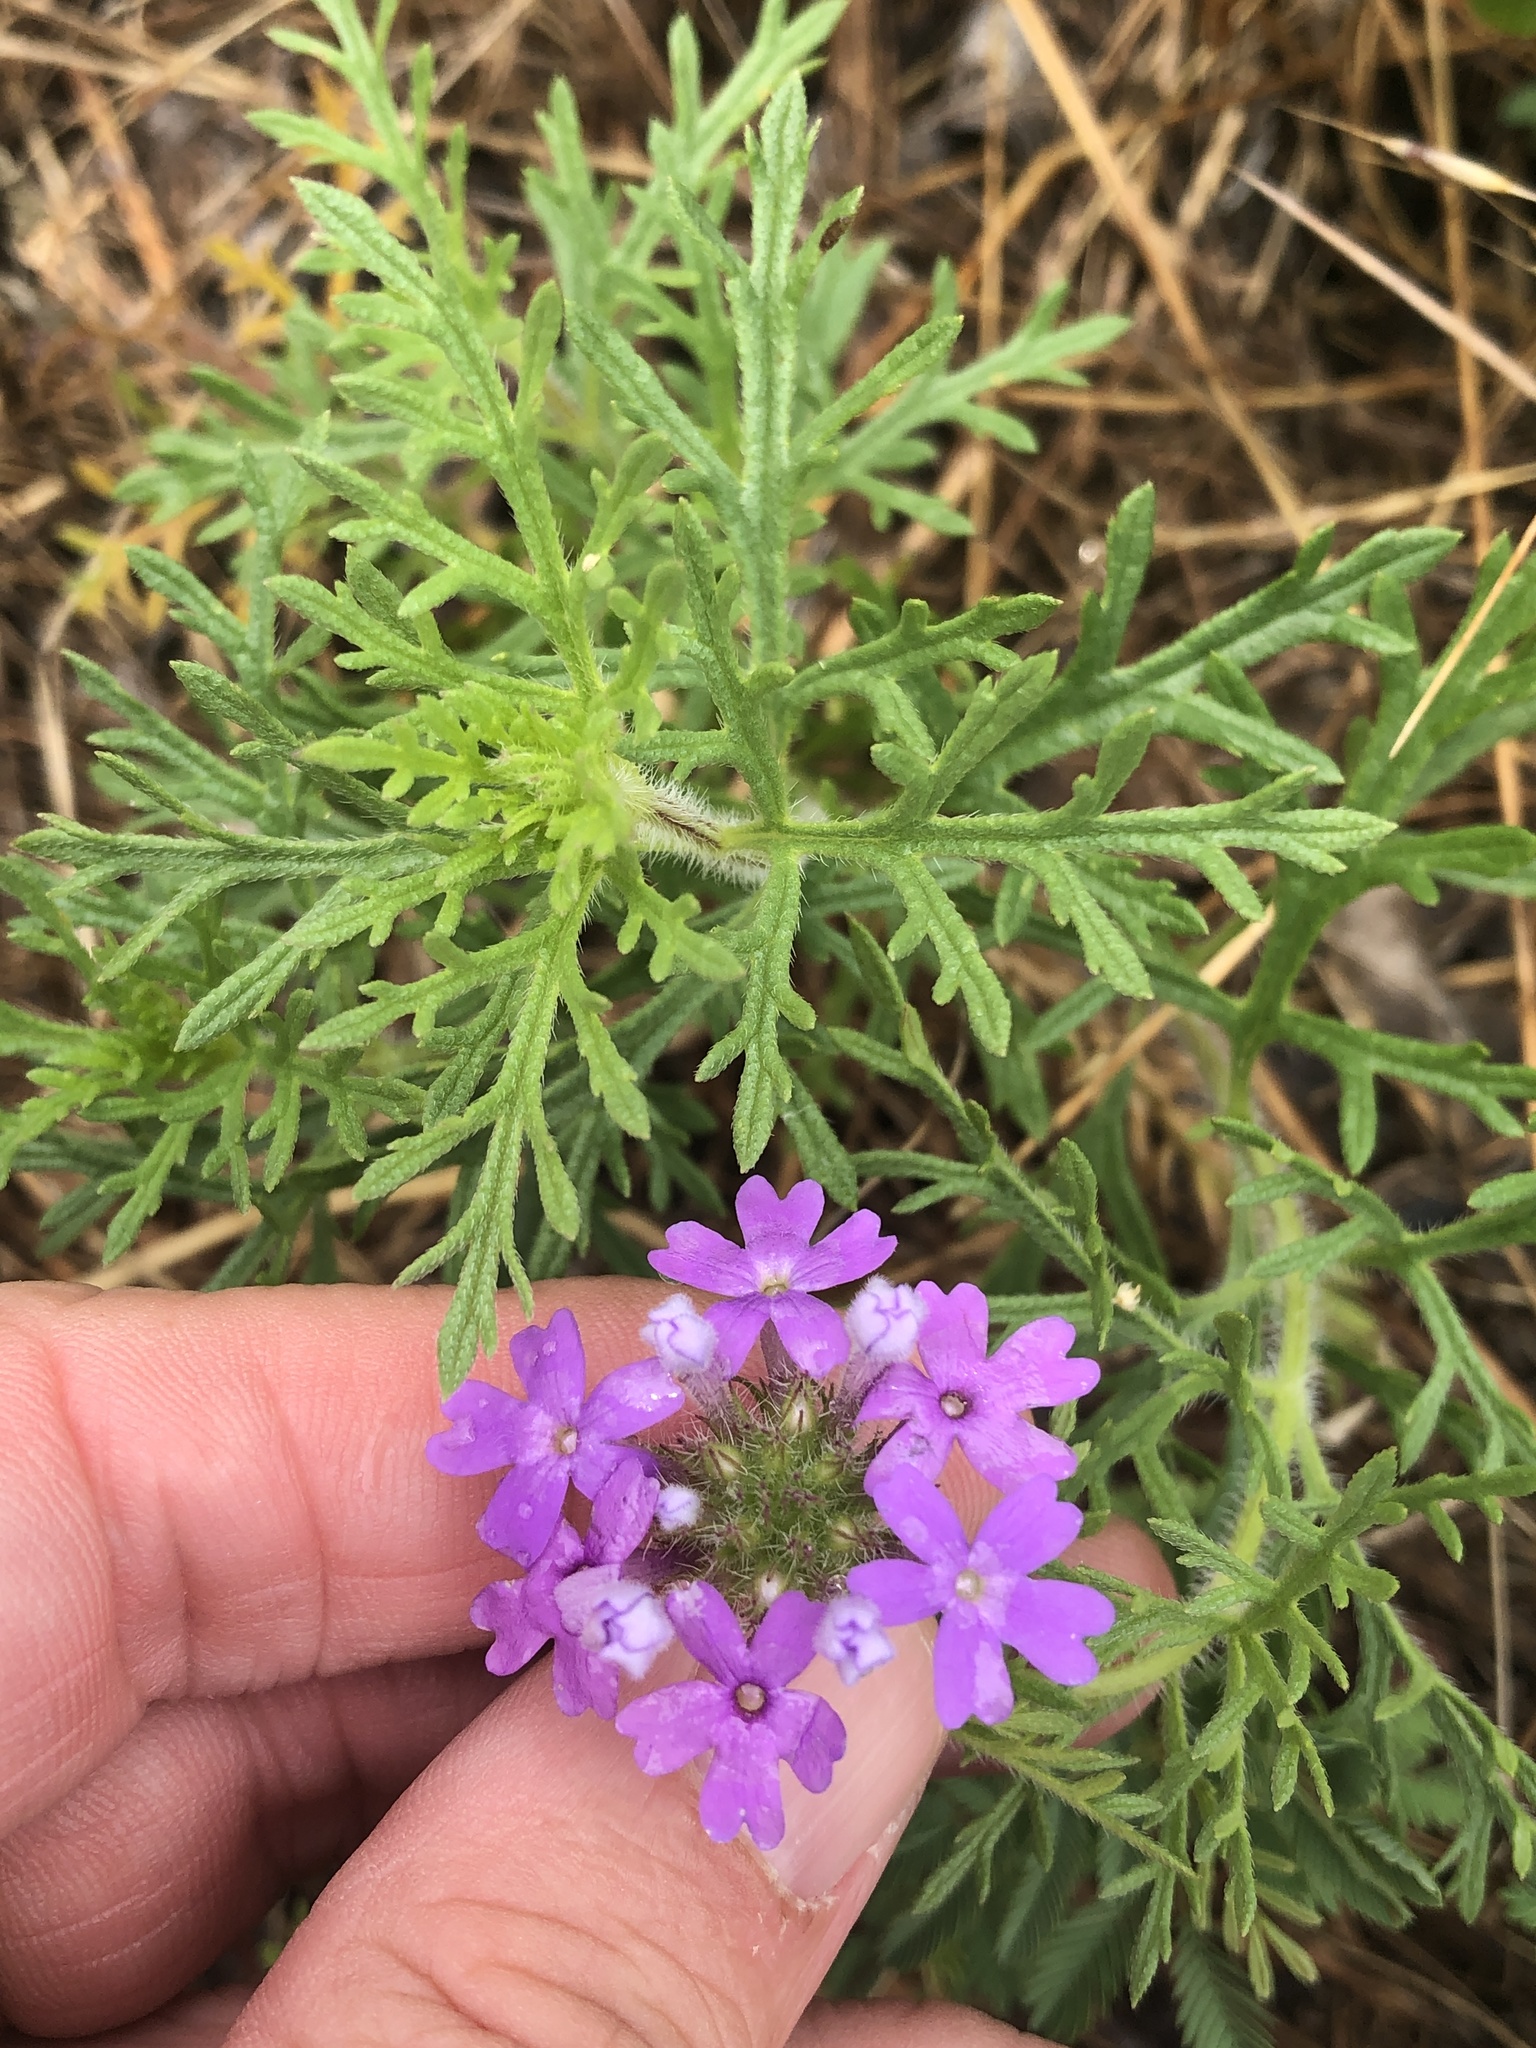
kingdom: Plantae
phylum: Tracheophyta
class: Magnoliopsida
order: Lamiales
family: Verbenaceae
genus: Verbena
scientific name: Verbena bipinnatifida
